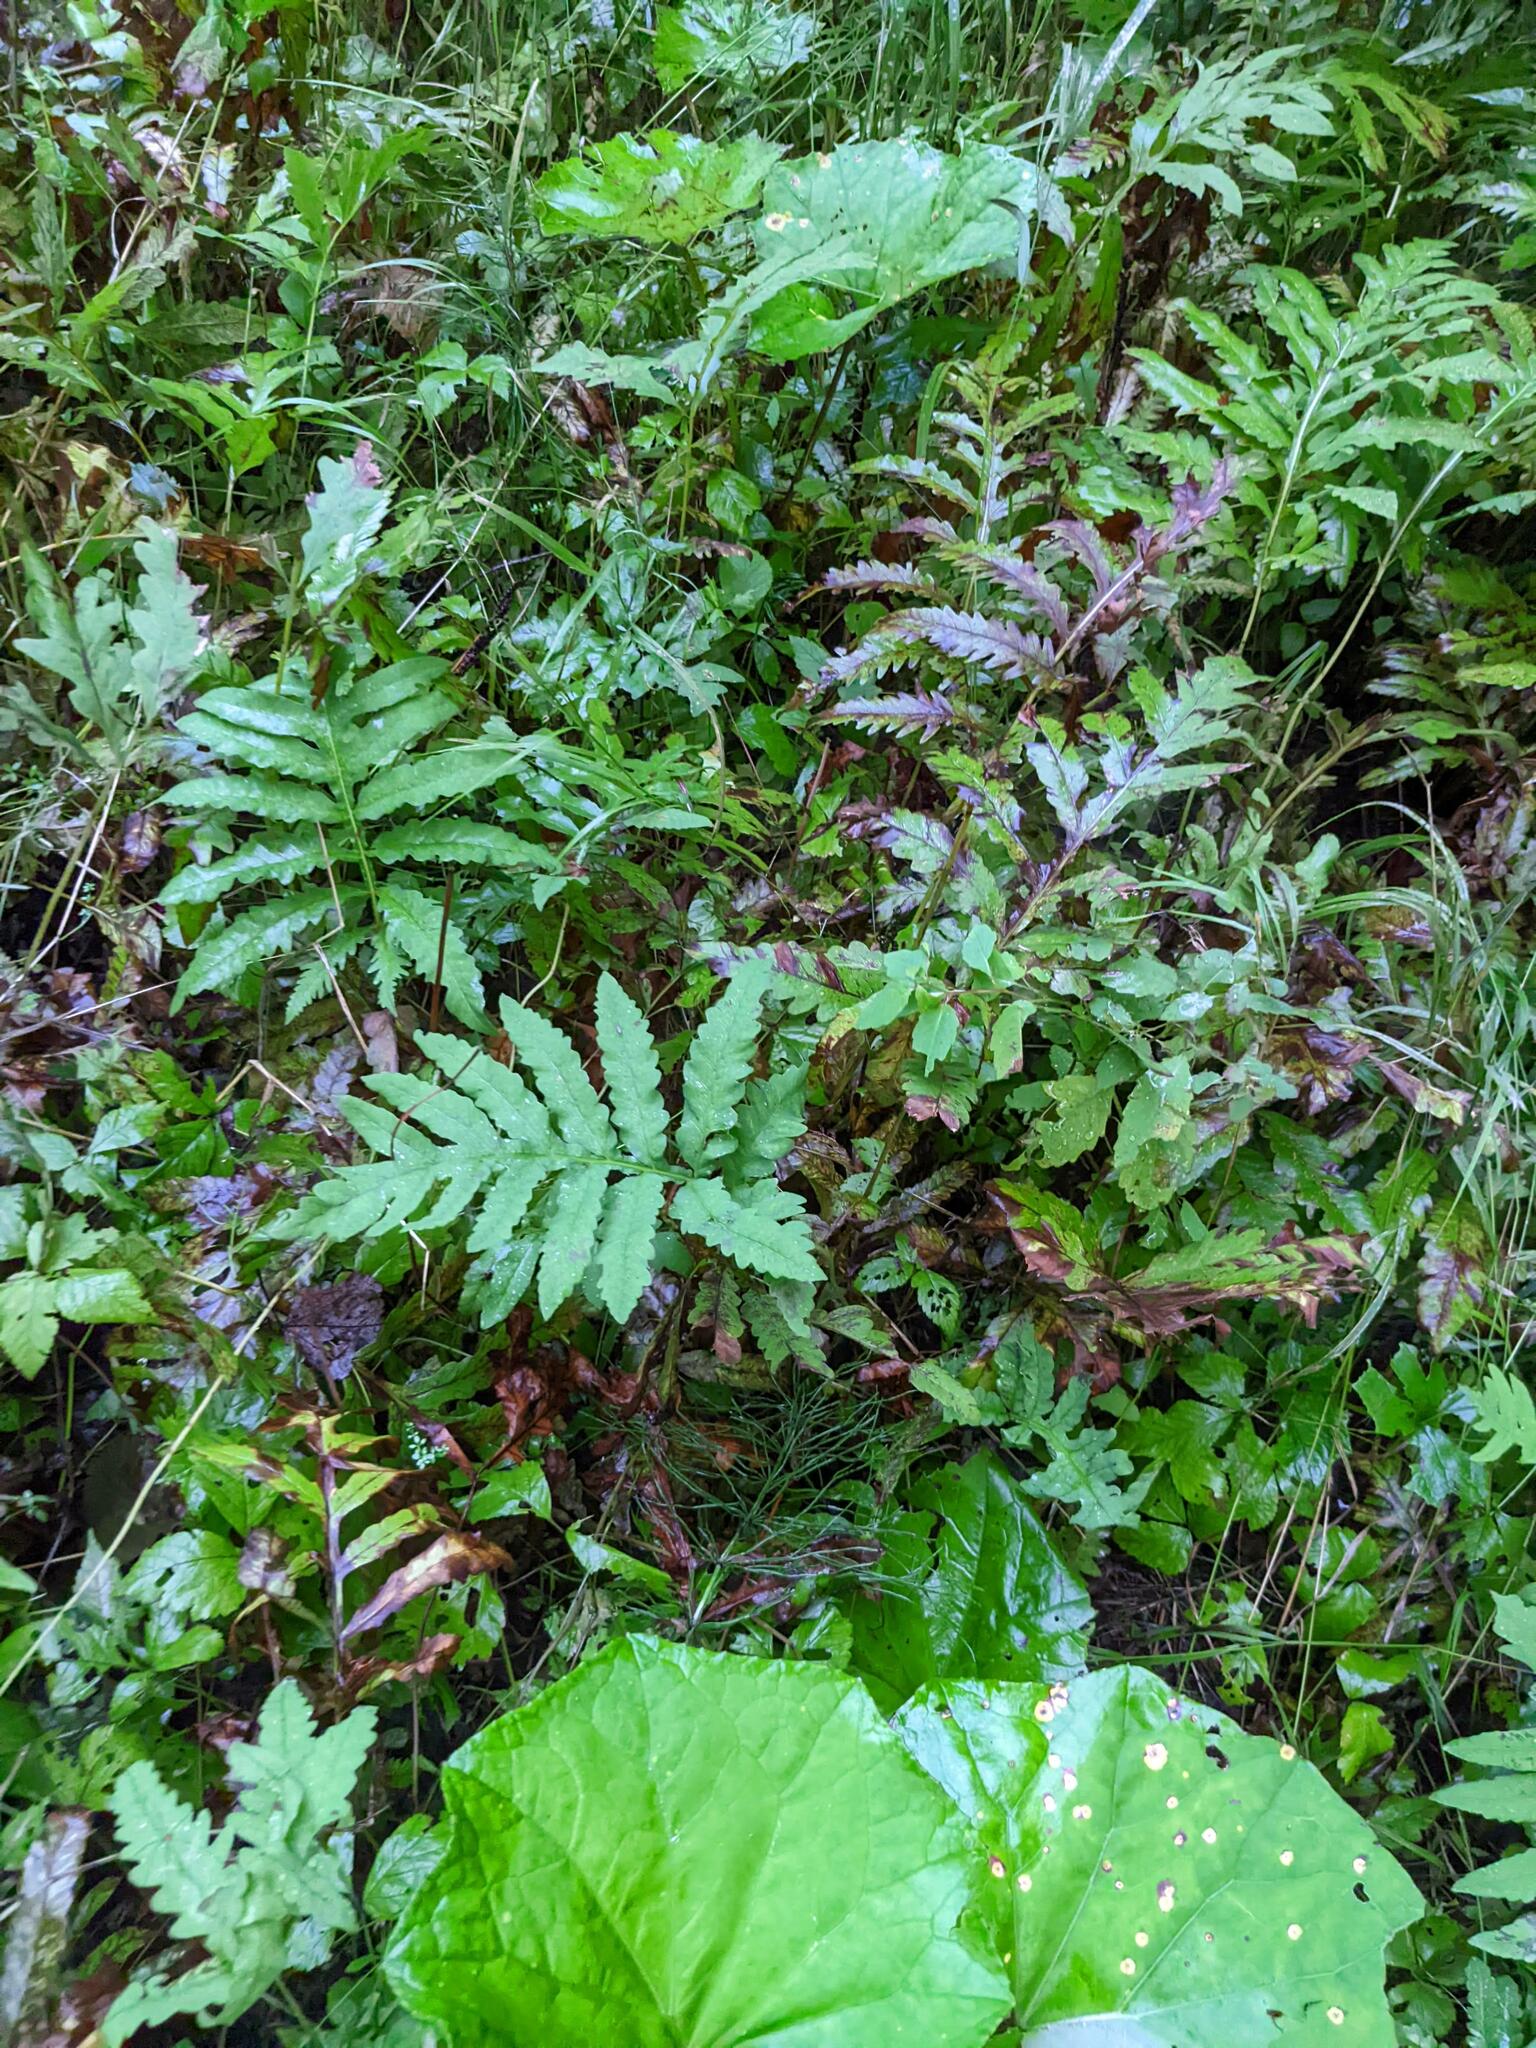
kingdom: Plantae
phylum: Tracheophyta
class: Polypodiopsida
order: Polypodiales
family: Onocleaceae
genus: Onoclea
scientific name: Onoclea sensibilis
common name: Sensitive fern
